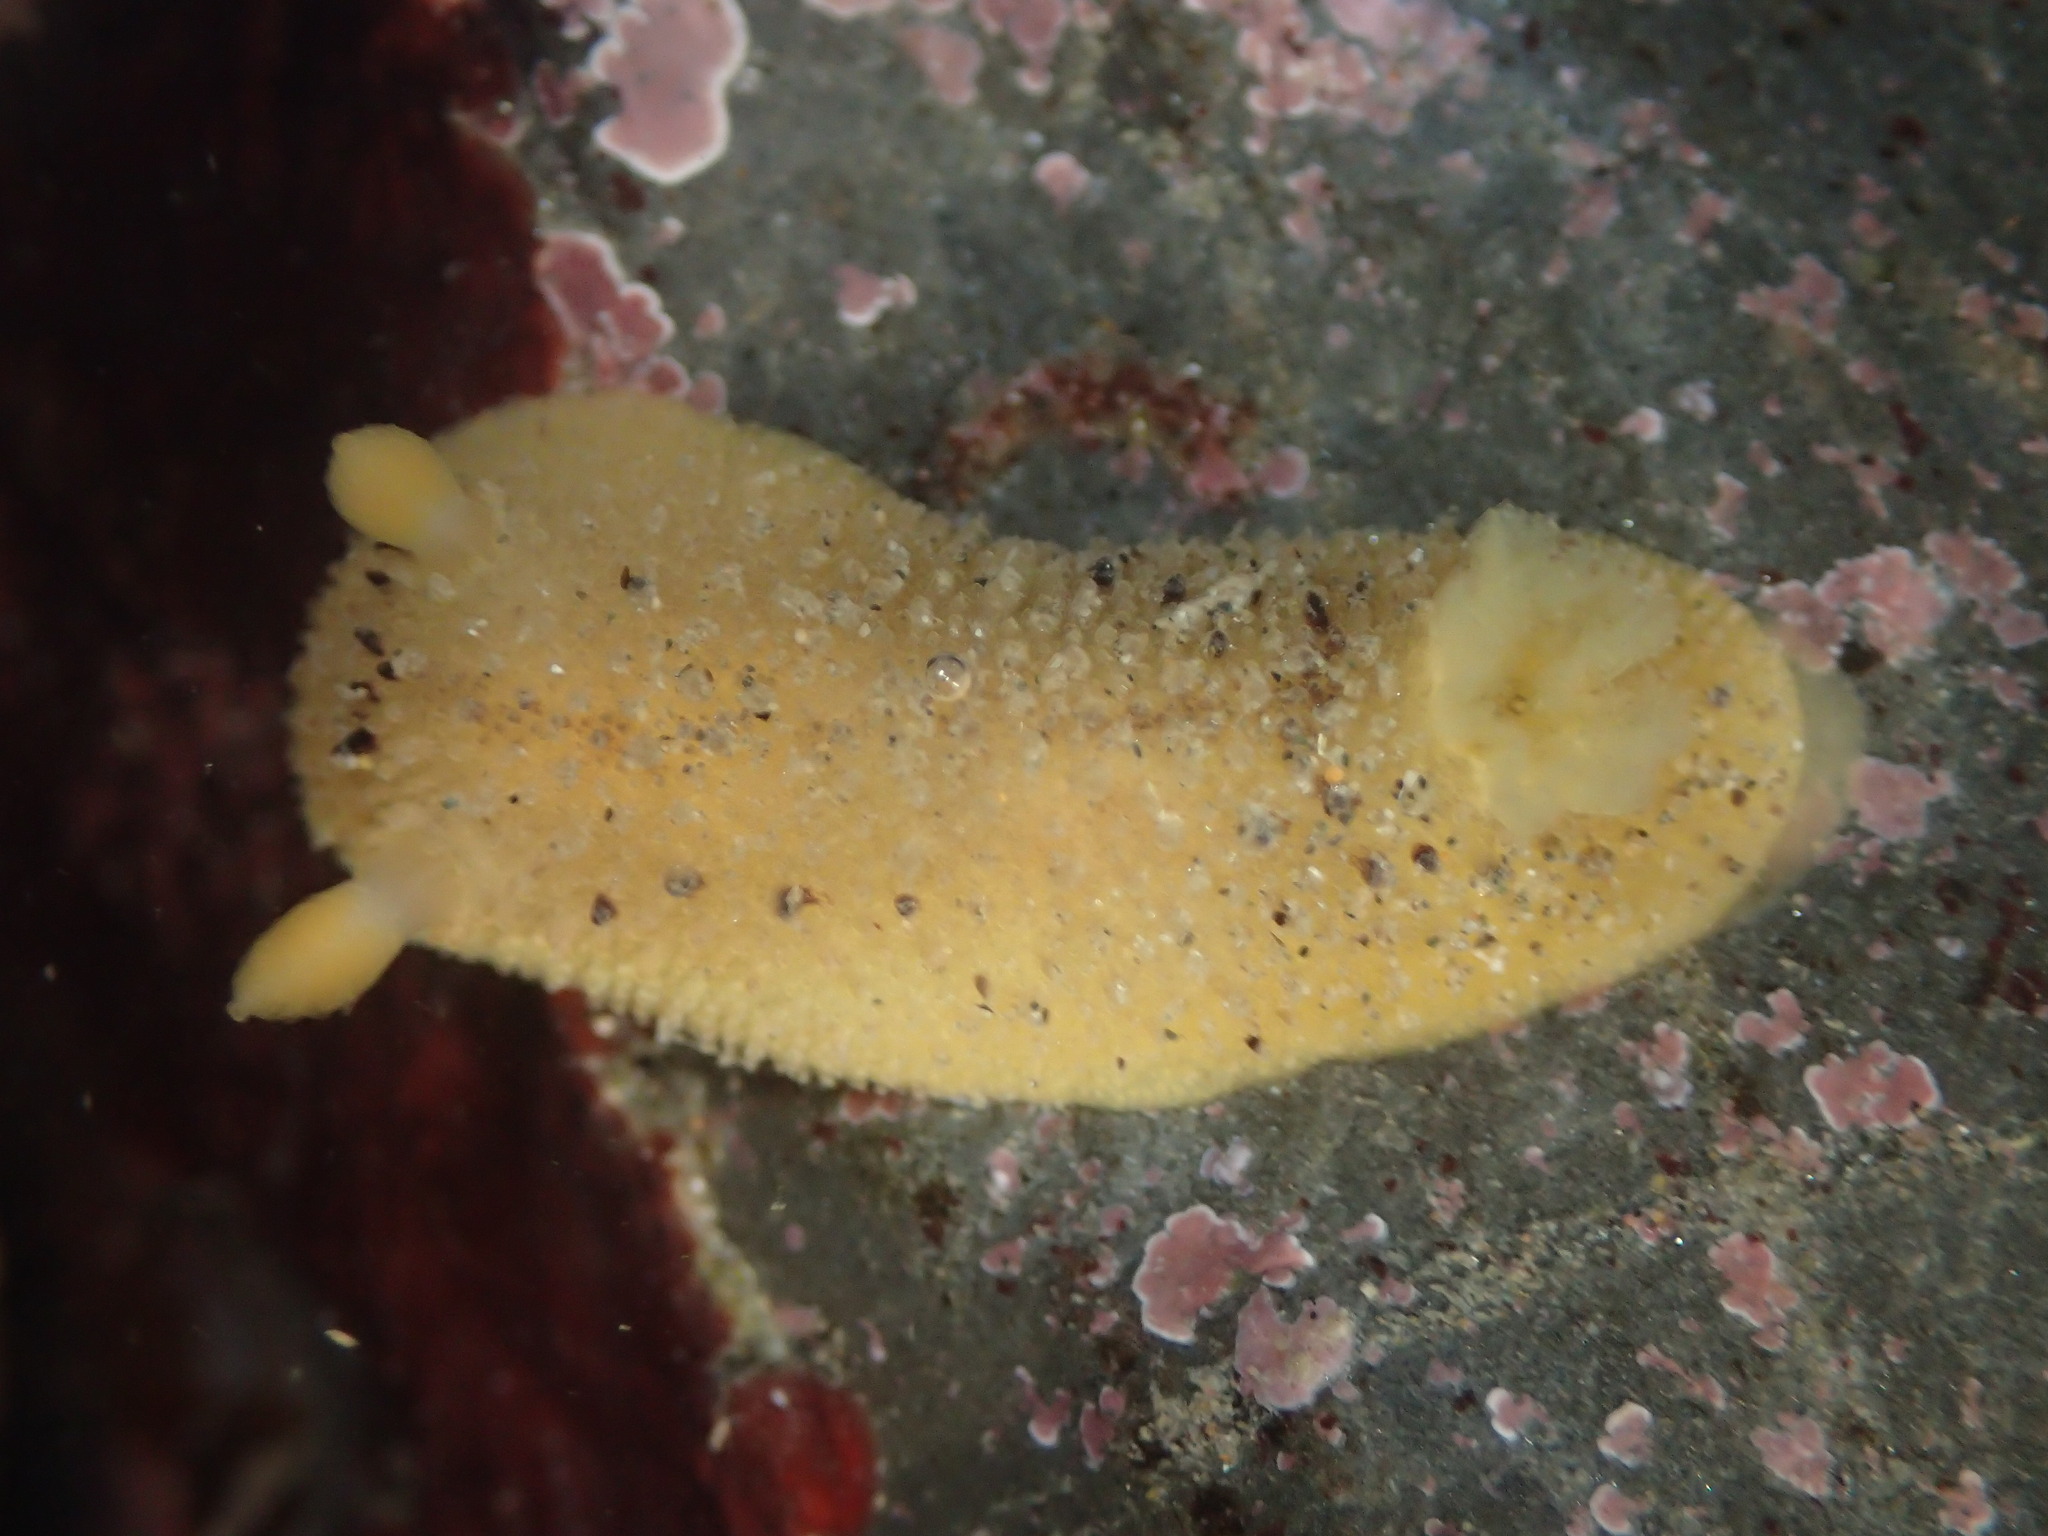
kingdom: Animalia
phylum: Mollusca
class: Gastropoda
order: Nudibranchia
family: Dorididae
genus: Doris
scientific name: Doris montereyensis
